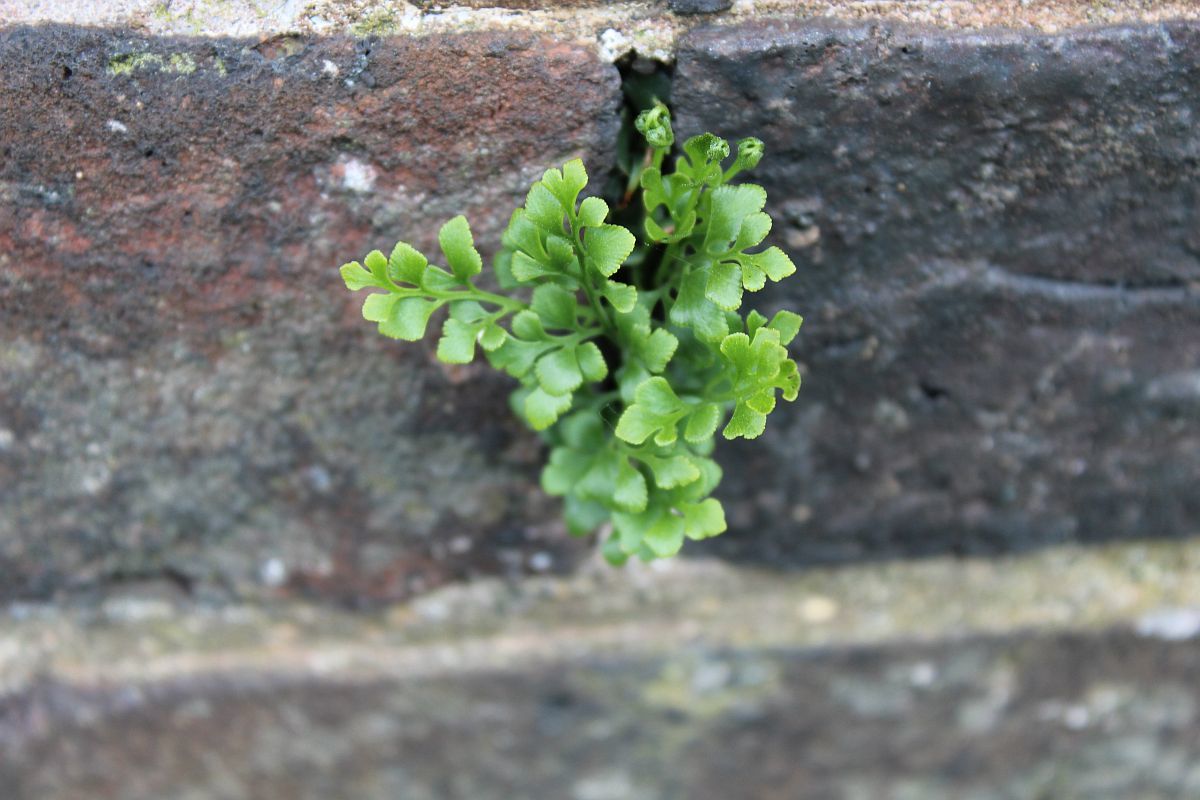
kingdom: Plantae
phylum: Tracheophyta
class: Polypodiopsida
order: Polypodiales
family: Aspleniaceae
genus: Asplenium
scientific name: Asplenium ruta-muraria
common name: Wall-rue
